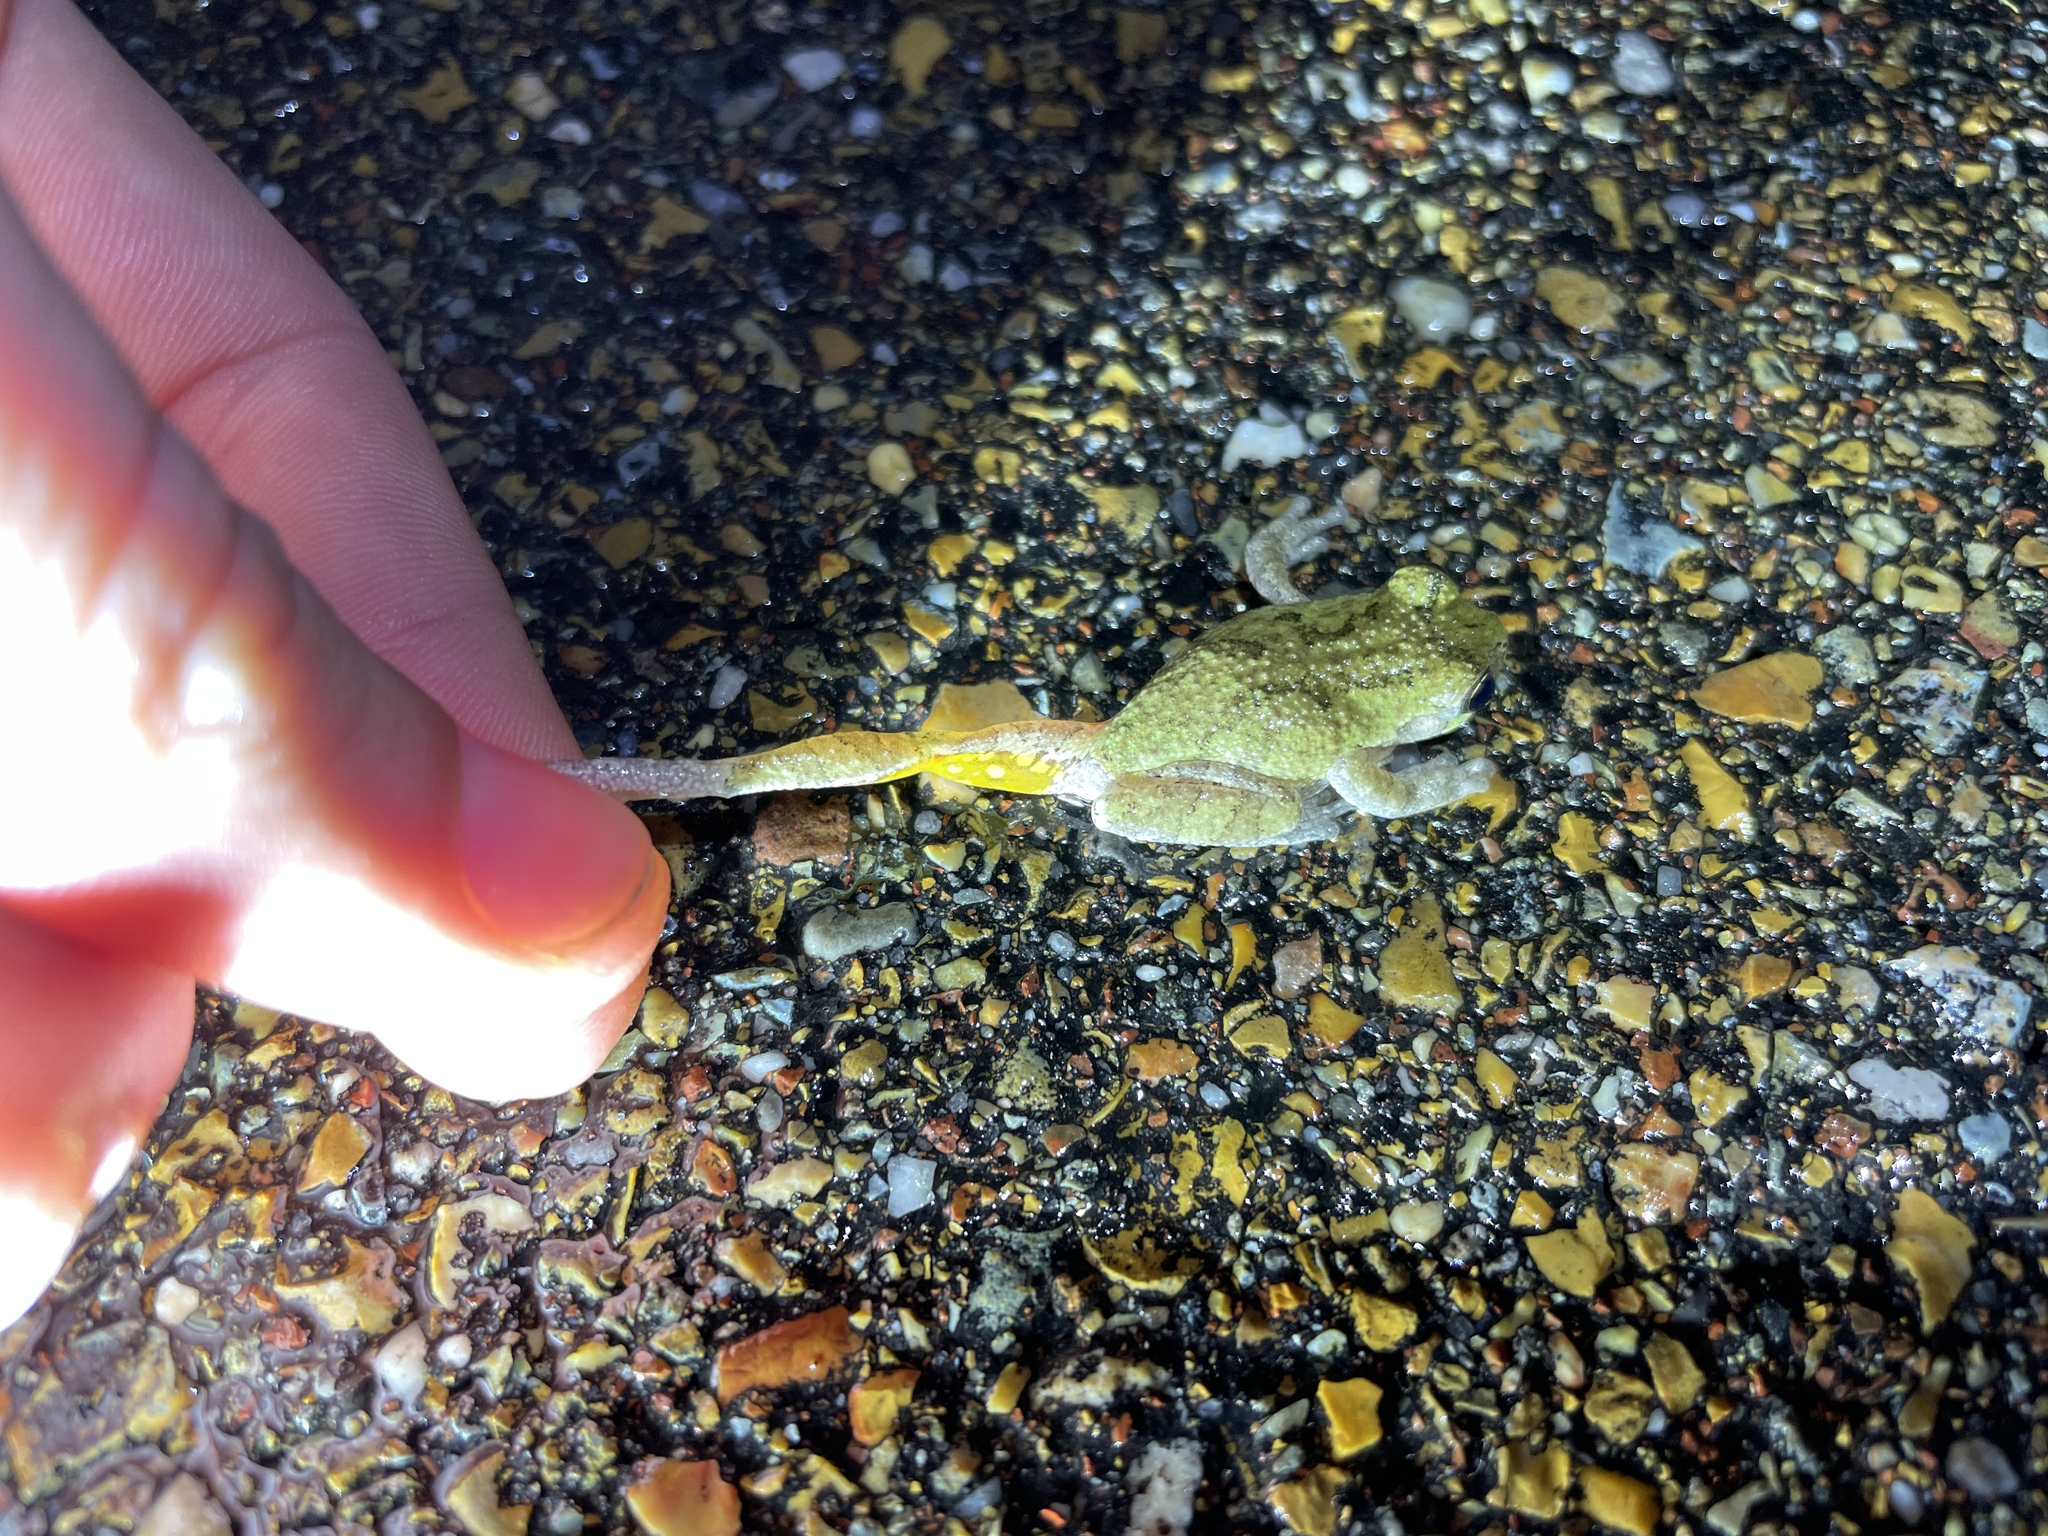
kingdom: Animalia
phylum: Chordata
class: Amphibia
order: Anura
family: Hylidae
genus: Dryophytes
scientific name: Dryophytes chrysoscelis
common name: Cope's gray treefrog
